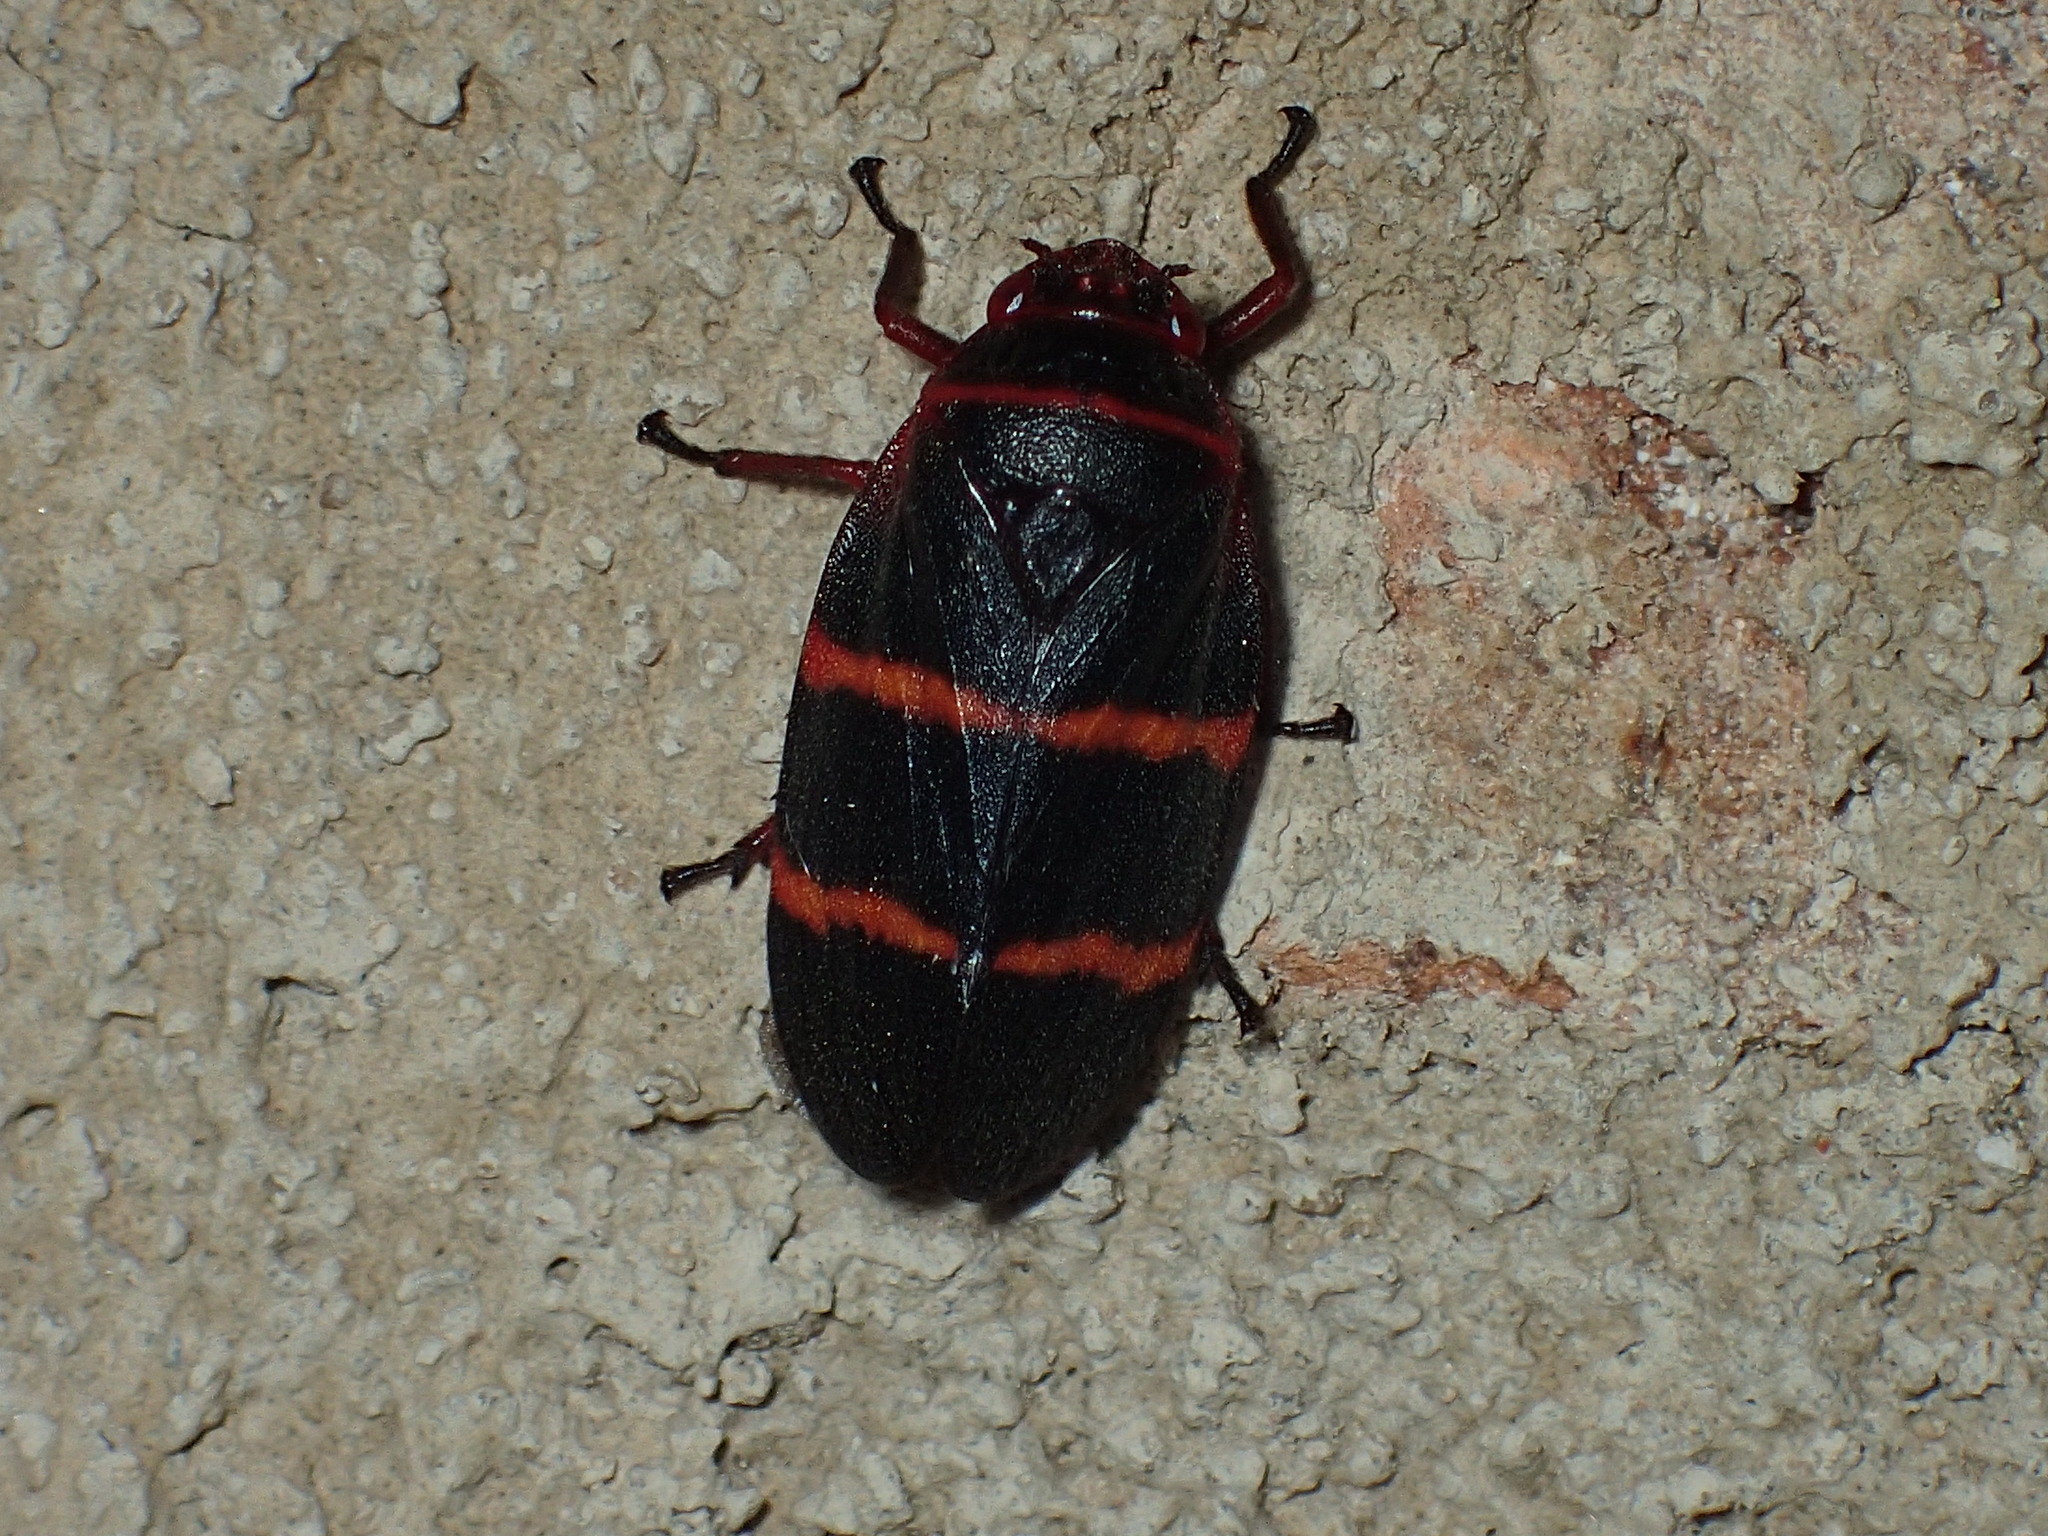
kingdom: Animalia
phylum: Arthropoda
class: Insecta
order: Hemiptera
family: Cercopidae
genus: Prosapia
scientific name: Prosapia bicincta
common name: Twolined spittlebug
